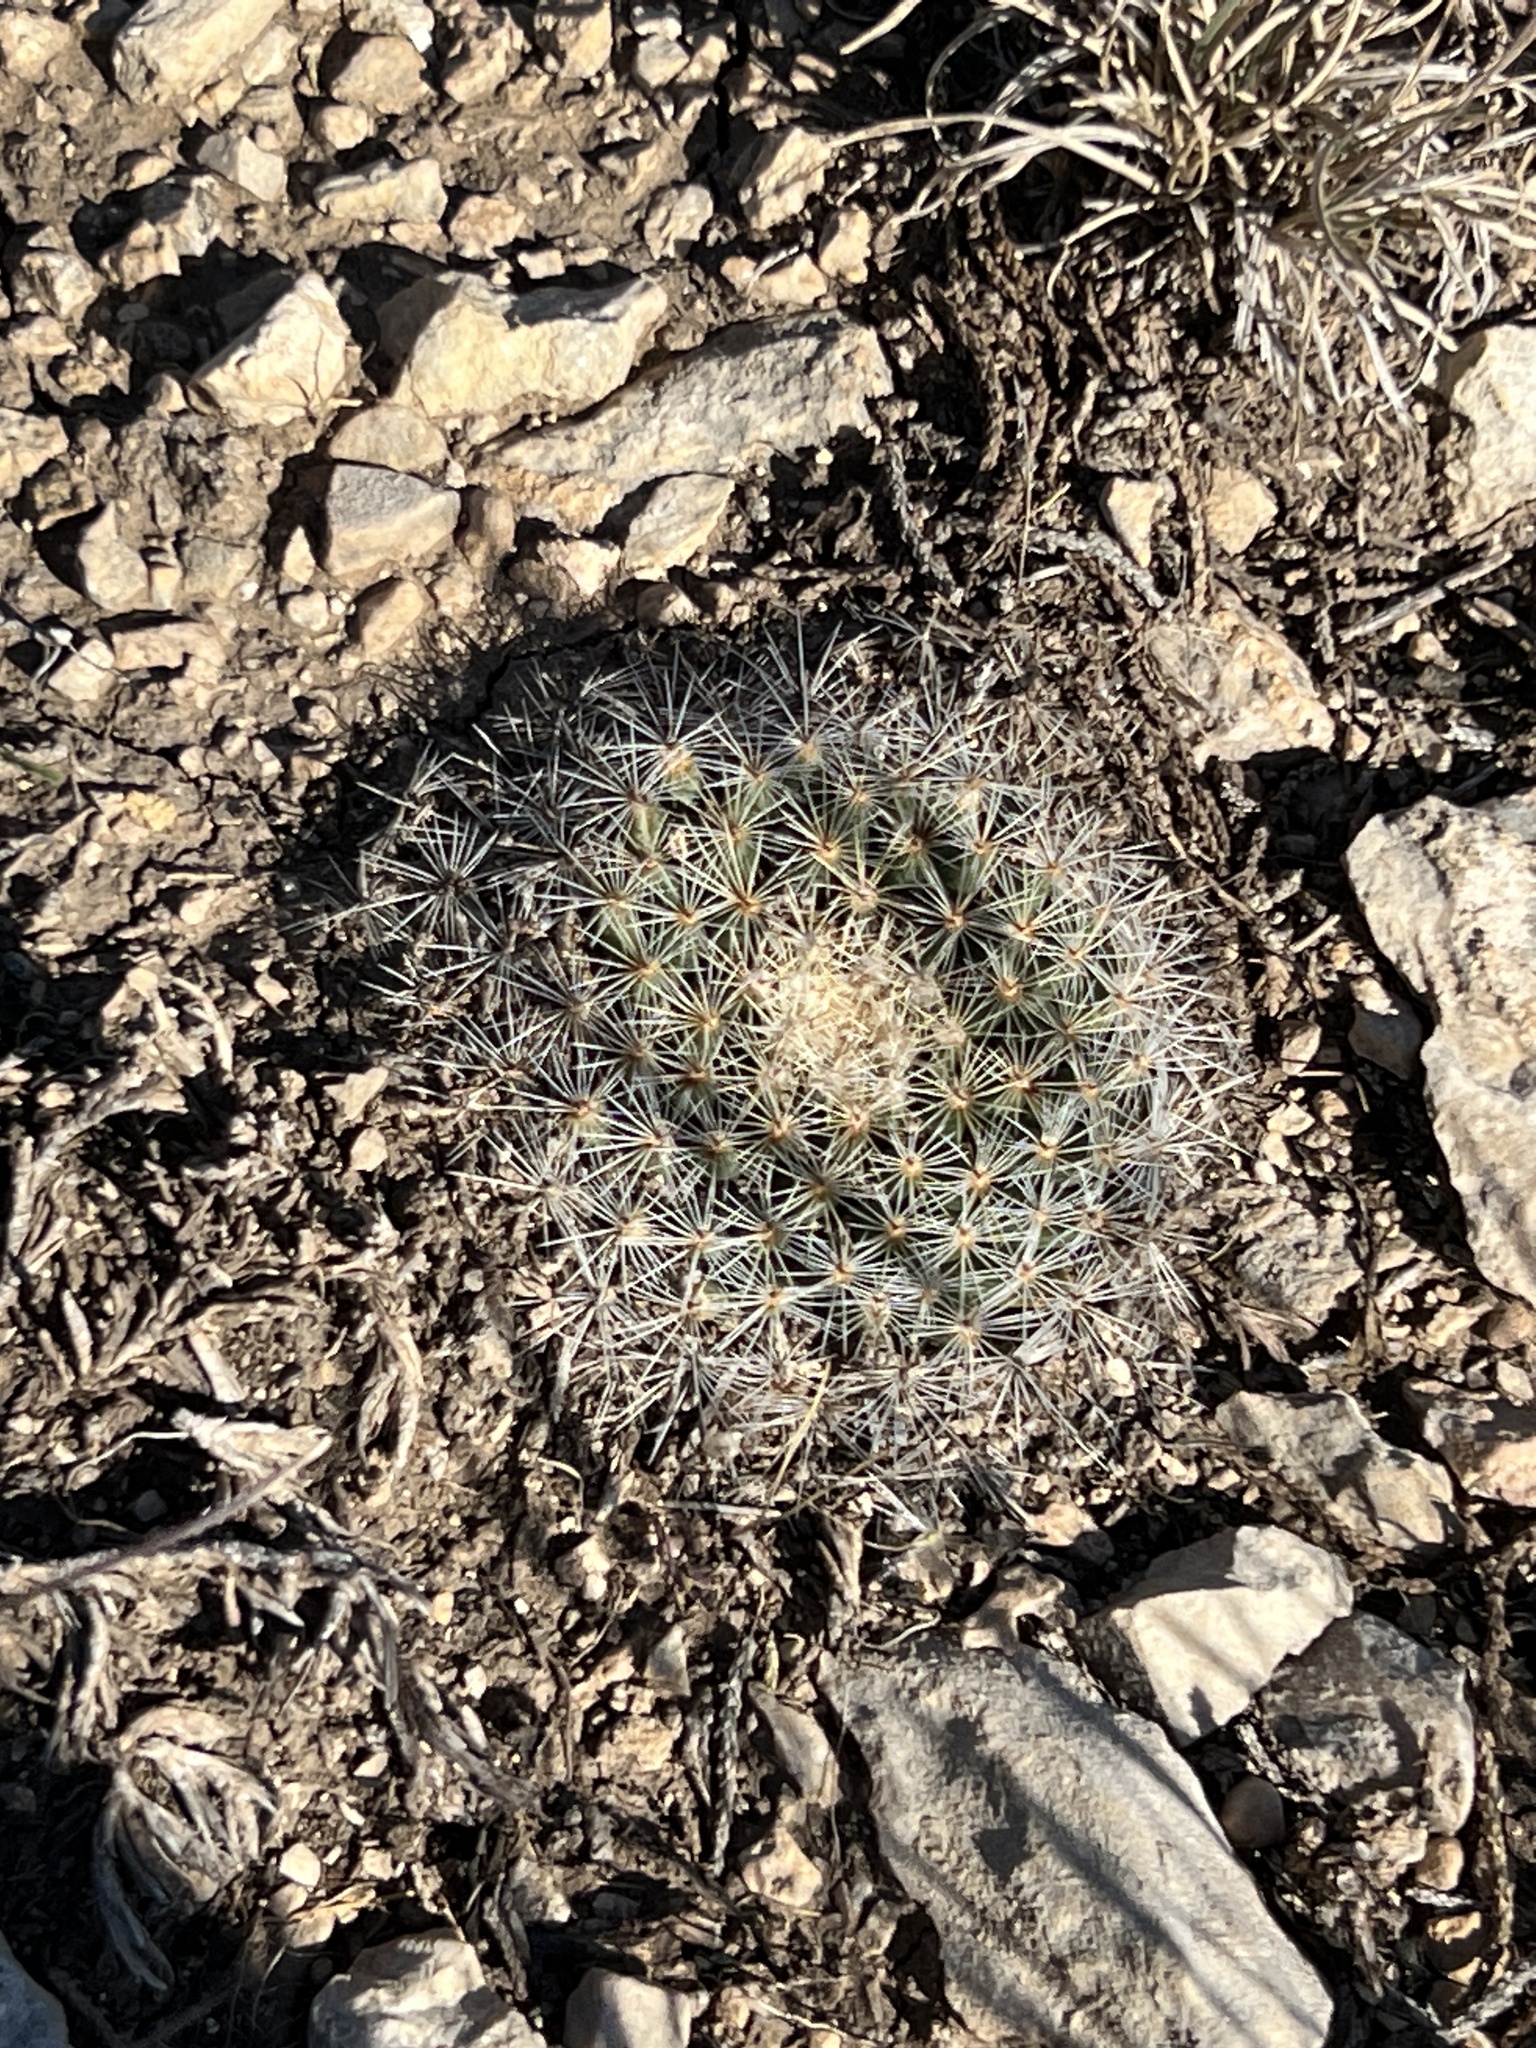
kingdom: Plantae
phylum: Tracheophyta
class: Magnoliopsida
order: Caryophyllales
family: Cactaceae
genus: Mammillaria
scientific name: Mammillaria heyderi
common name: Little nipple cactus
